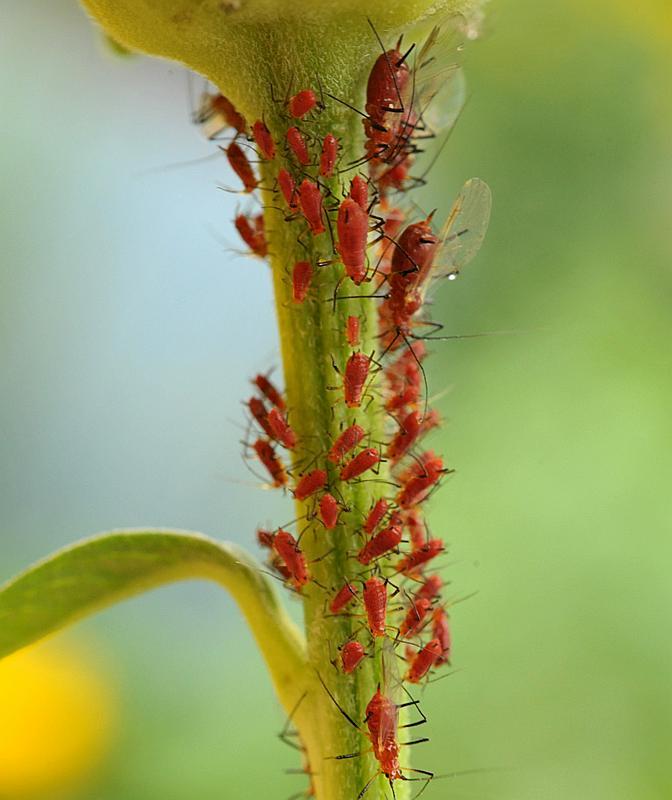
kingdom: Animalia
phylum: Arthropoda
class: Insecta
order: Hemiptera
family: Aphididae
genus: Uroleucon
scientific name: Uroleucon obscuricaudatum
